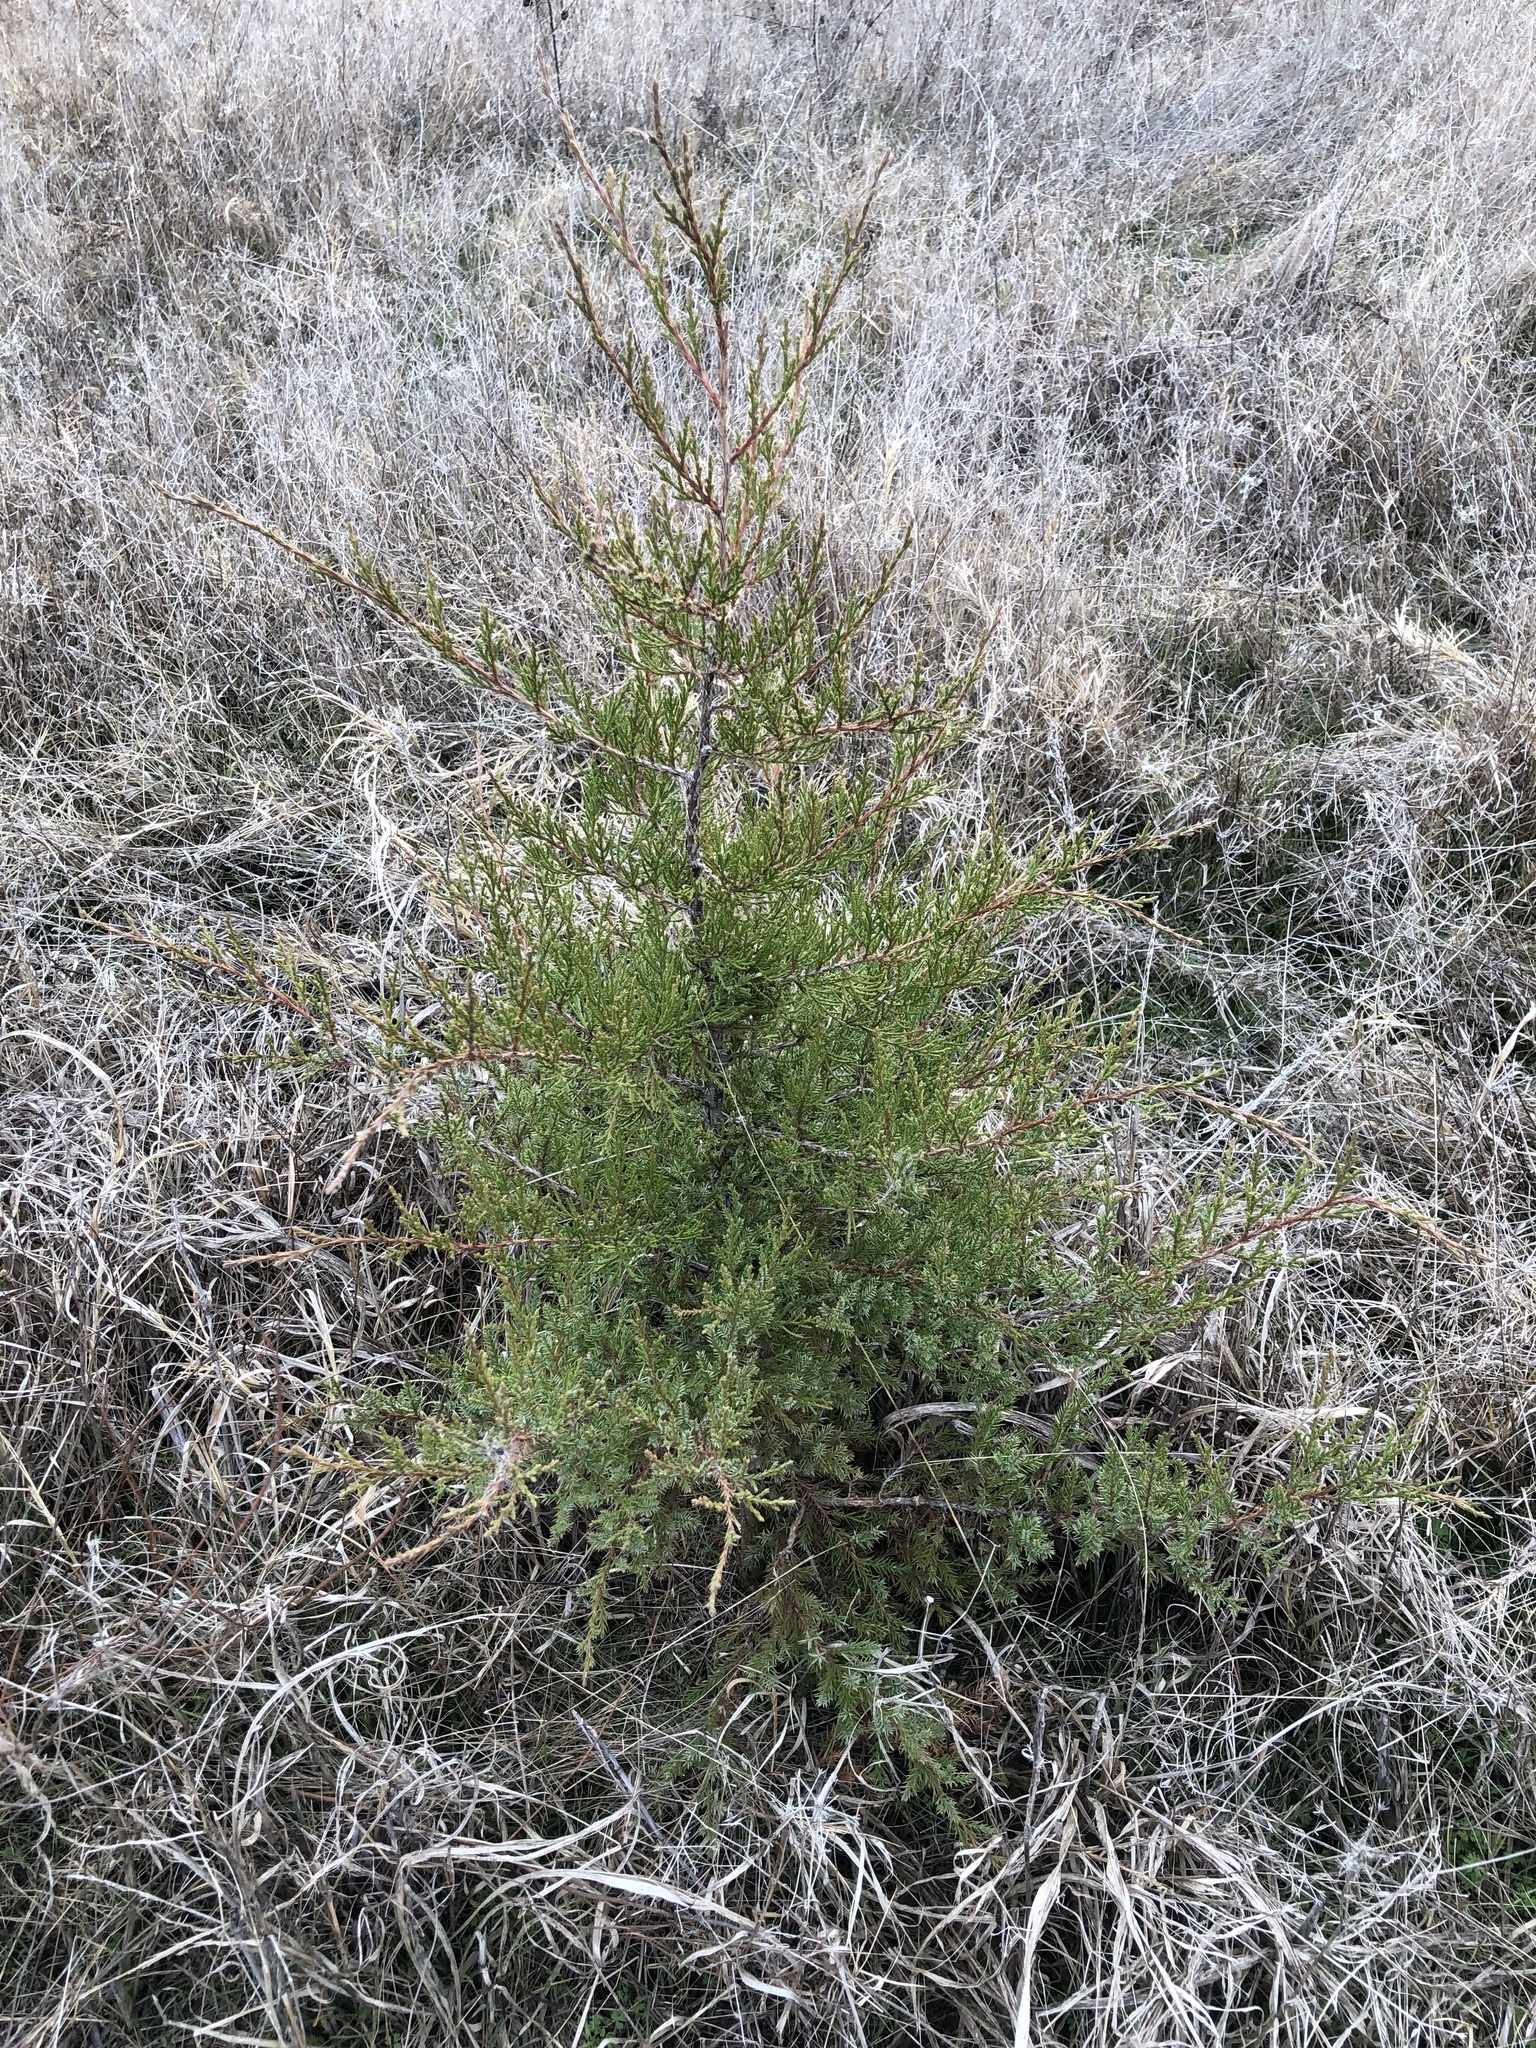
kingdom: Plantae
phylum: Tracheophyta
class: Pinopsida
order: Pinales
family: Cupressaceae
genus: Juniperus
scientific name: Juniperus virginiana
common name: Red juniper
